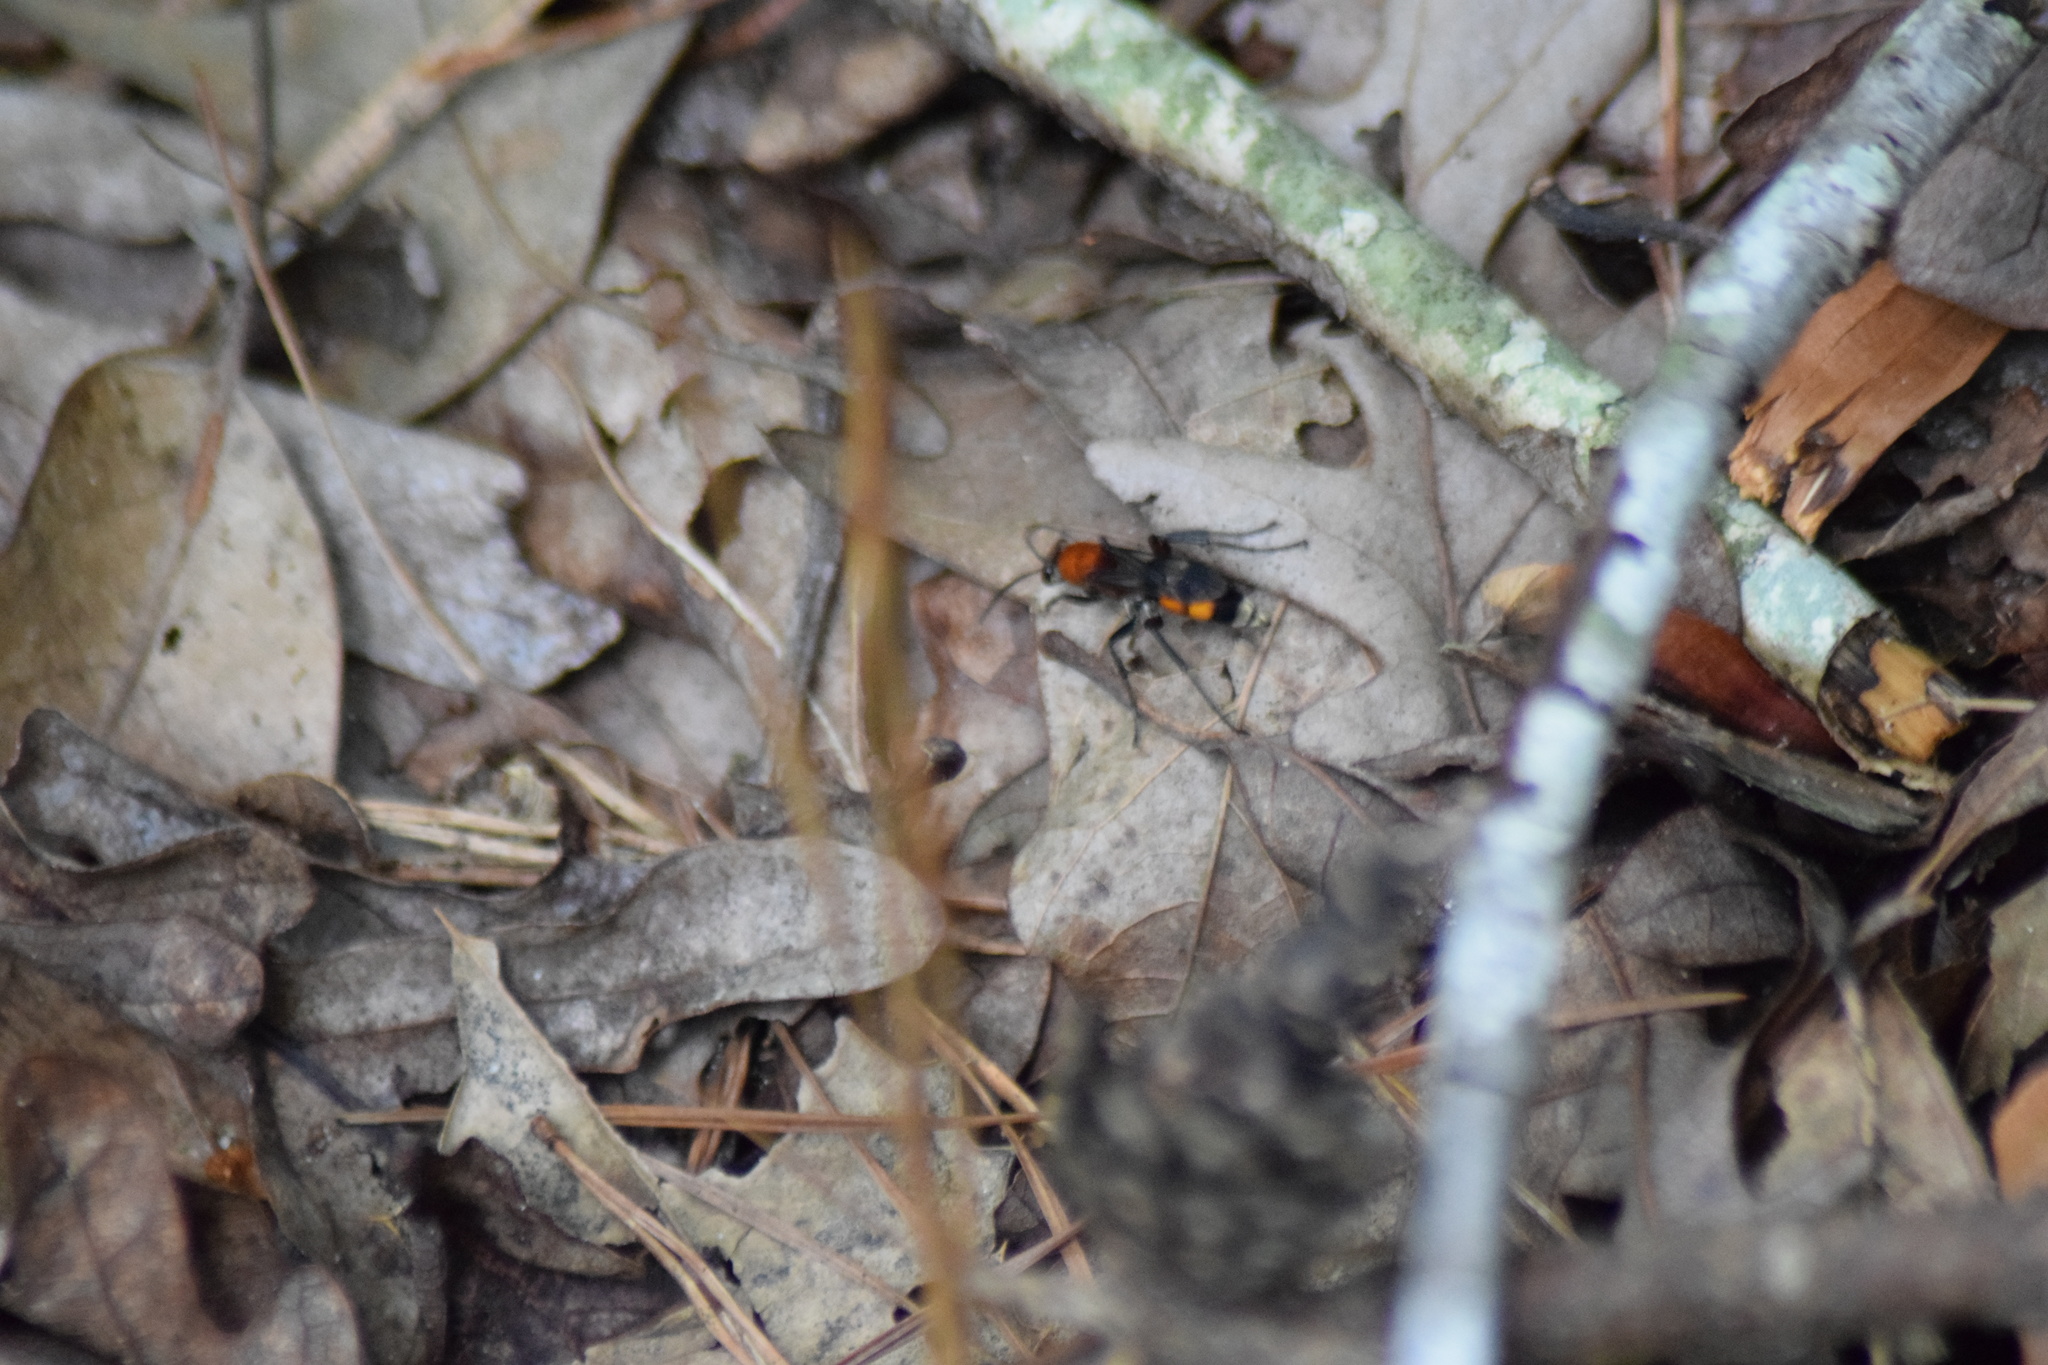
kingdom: Animalia
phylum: Arthropoda
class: Insecta
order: Hymenoptera
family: Pompilidae
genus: Psorthaspis
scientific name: Psorthaspis mariae
